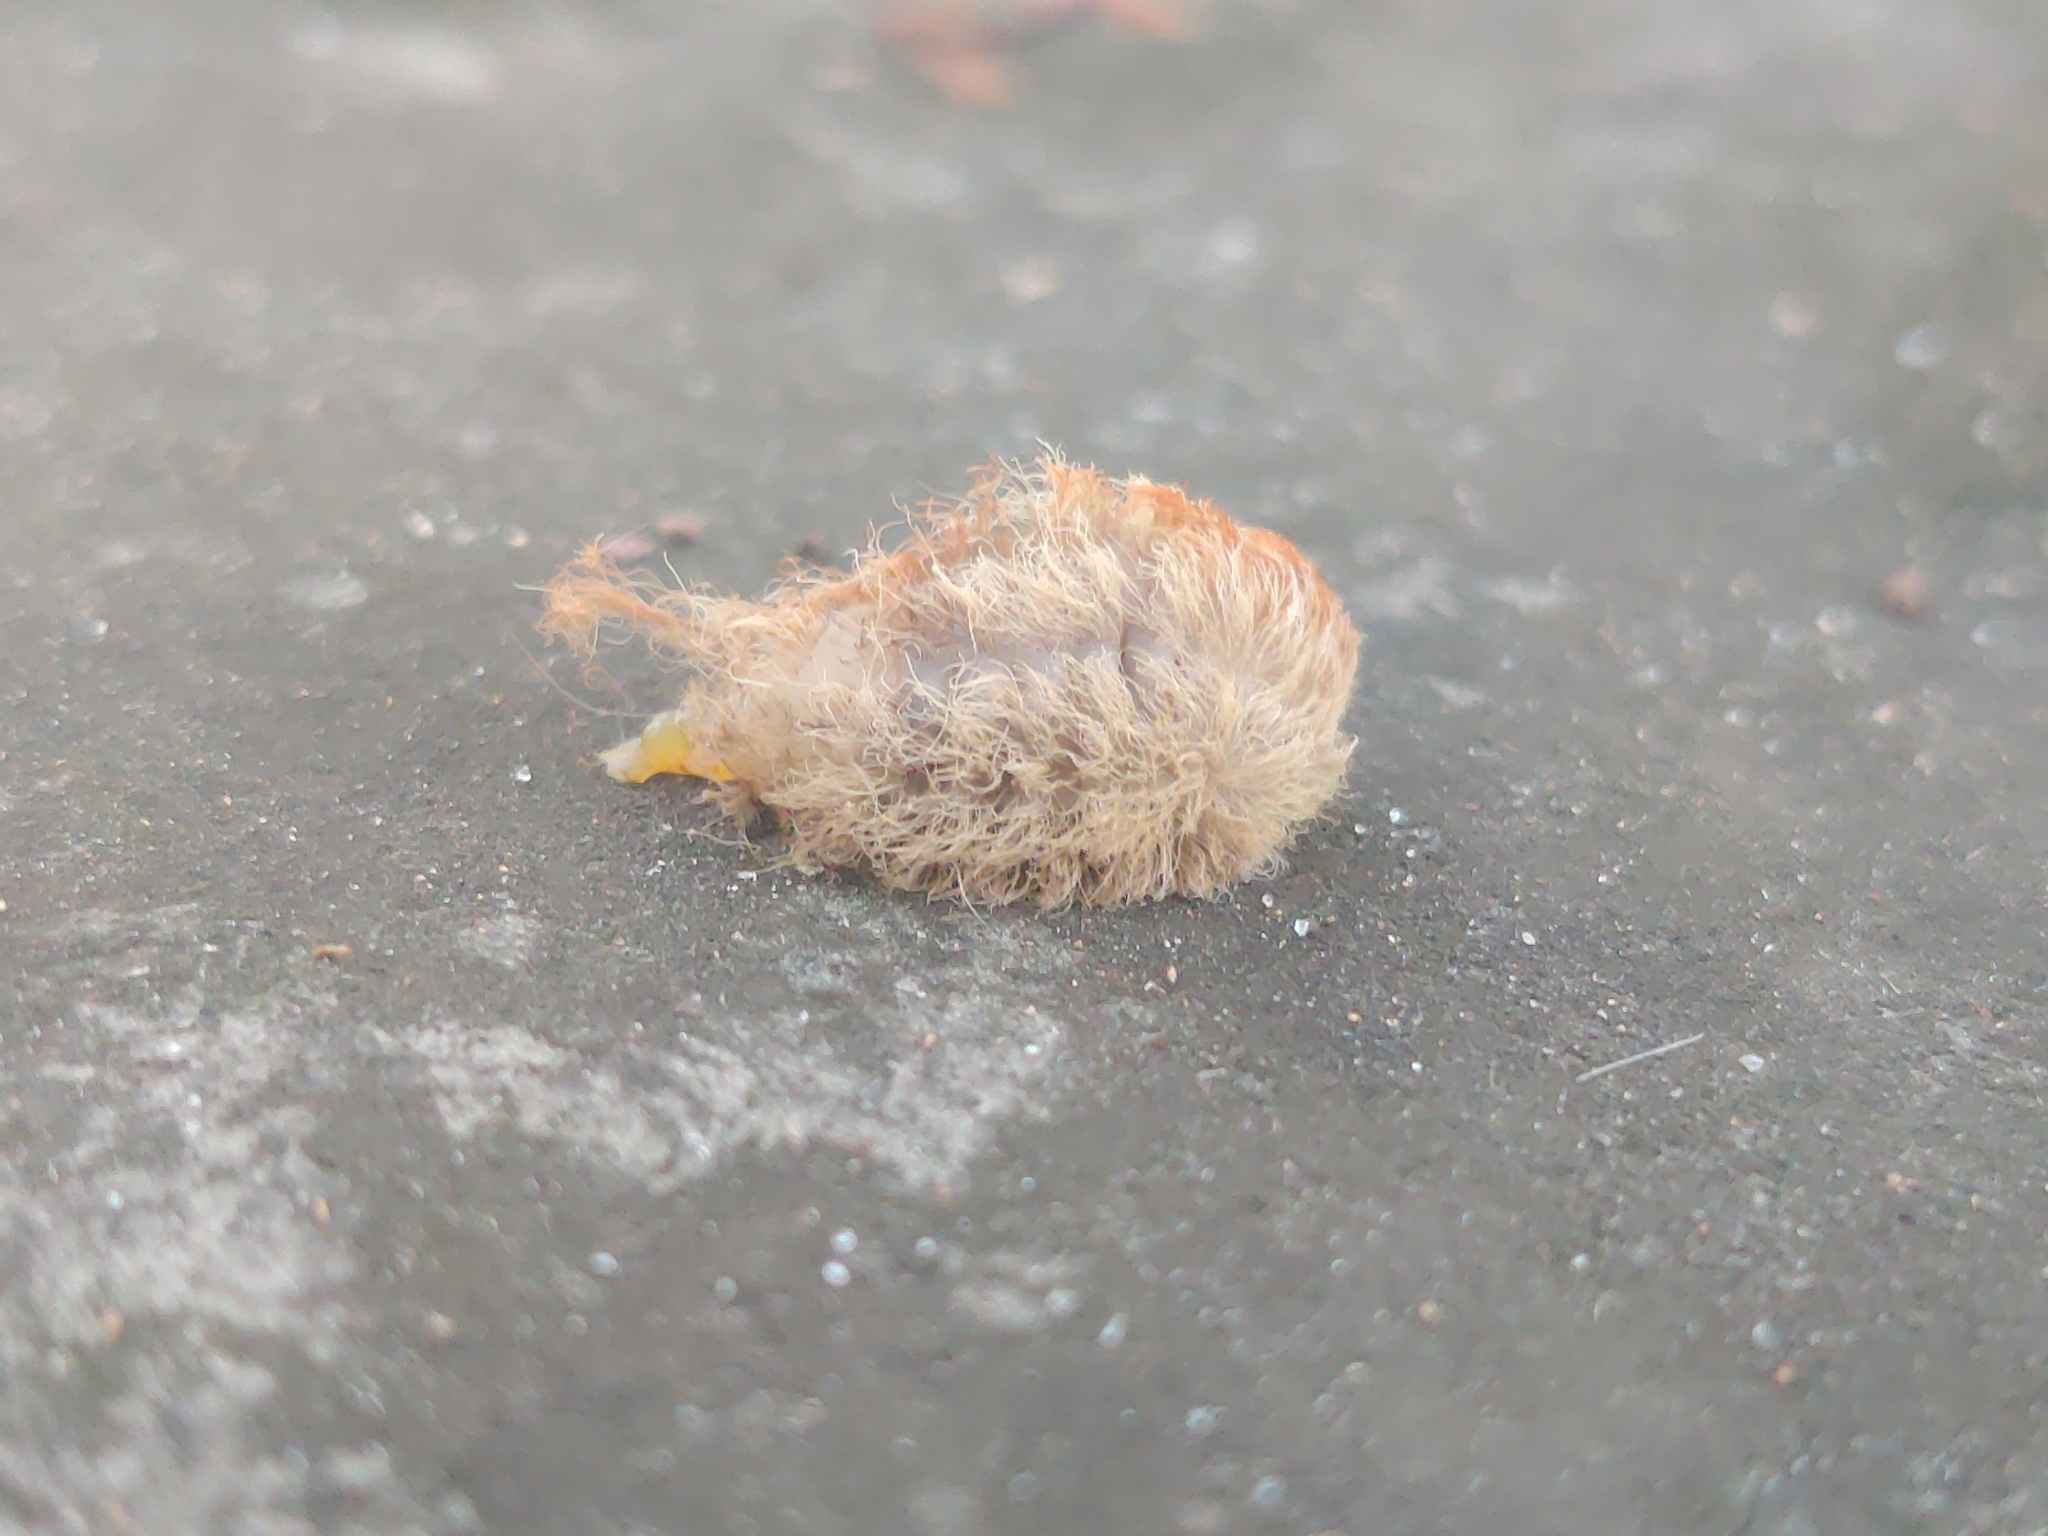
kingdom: Animalia
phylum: Arthropoda
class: Insecta
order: Lepidoptera
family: Megalopygidae
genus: Megalopyge
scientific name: Megalopyge opercularis
